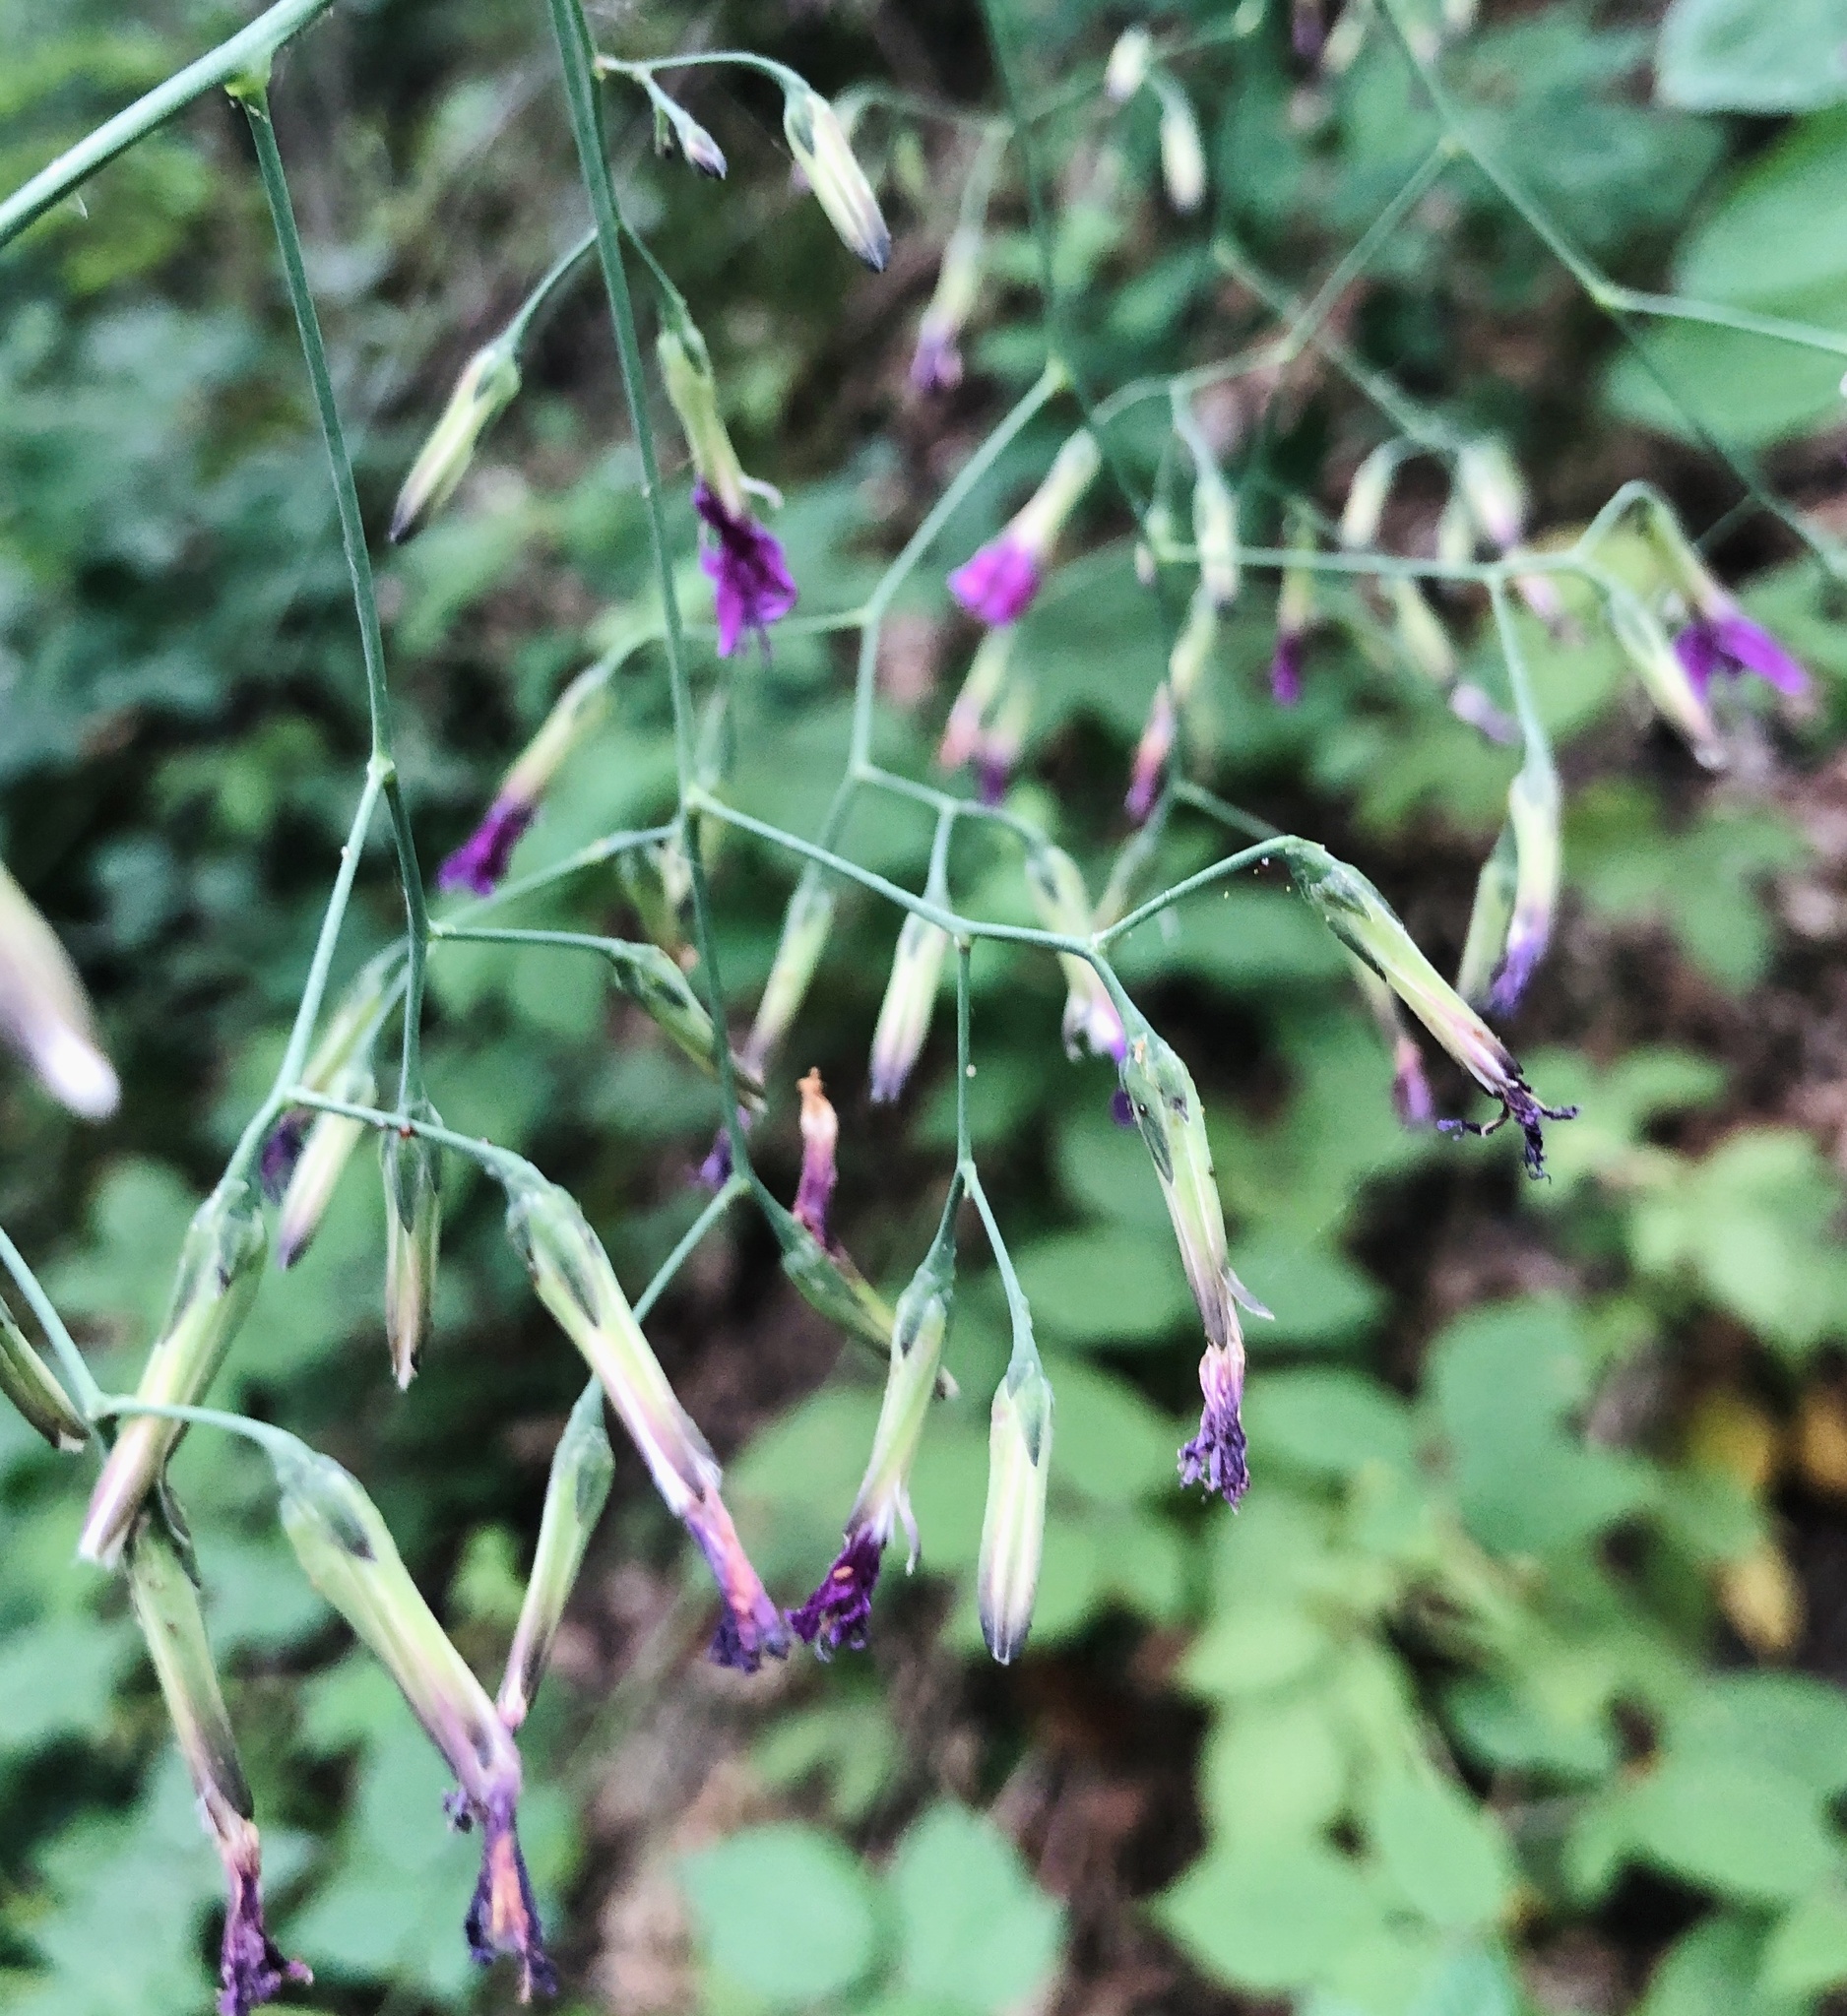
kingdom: Plantae
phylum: Tracheophyta
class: Magnoliopsida
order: Asterales
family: Asteraceae
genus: Prenanthes
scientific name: Prenanthes purpurea
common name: Purple lettuce
